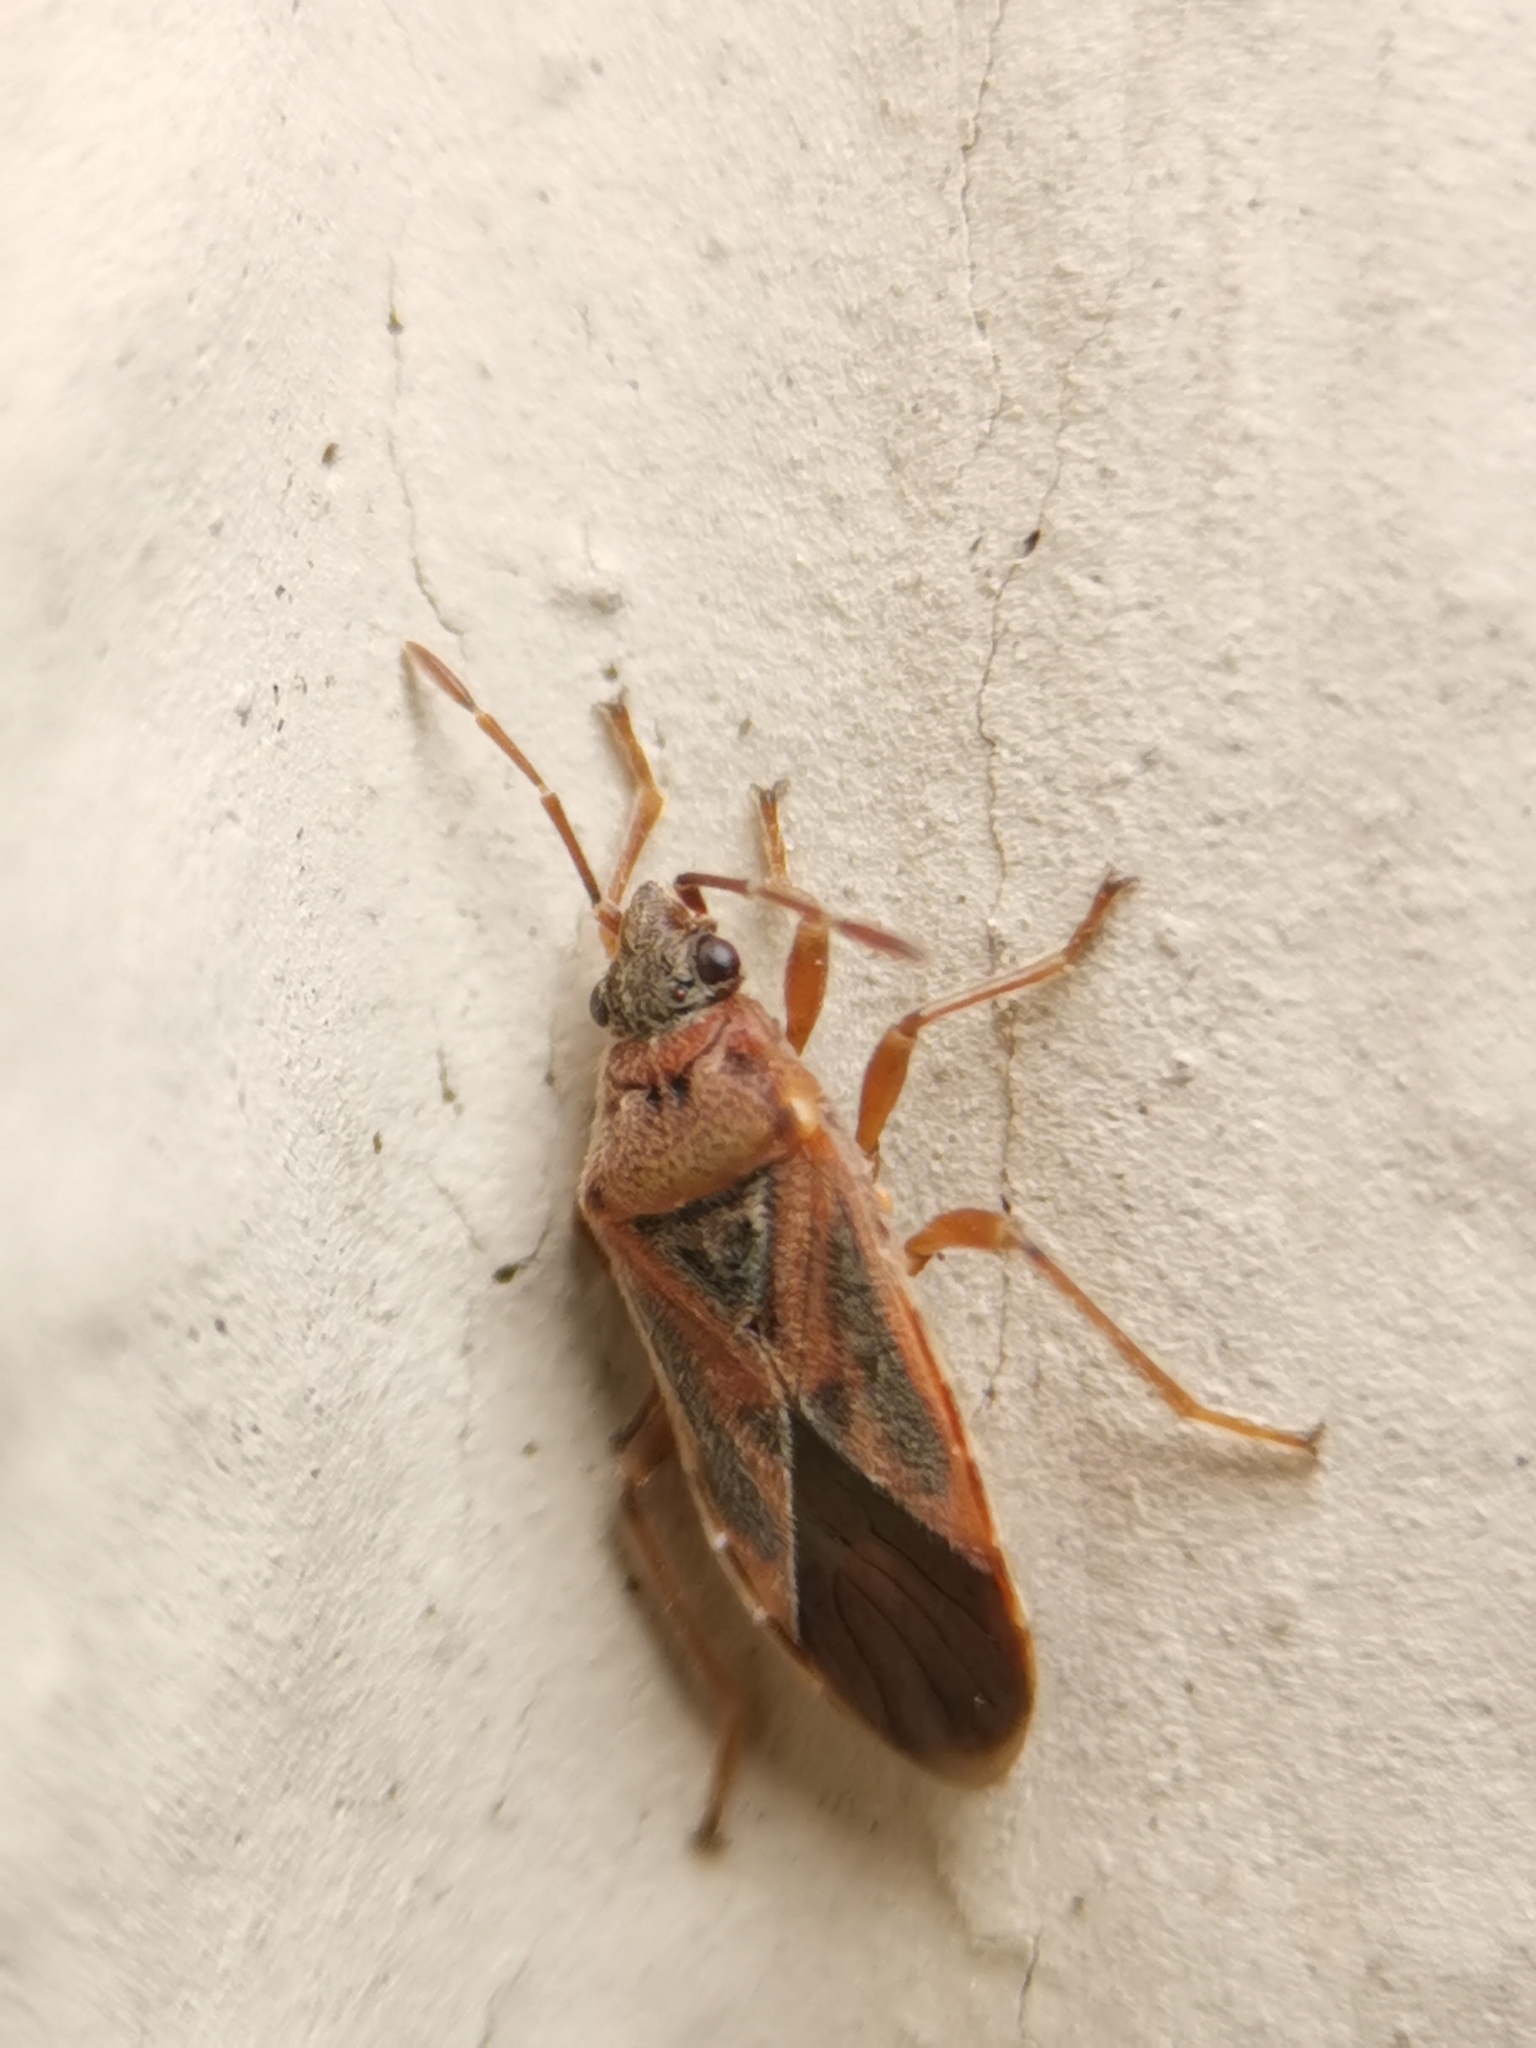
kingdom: Animalia
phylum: Arthropoda
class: Insecta
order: Hemiptera
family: Lygaeidae
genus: Arocatus
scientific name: Arocatus roeselii
